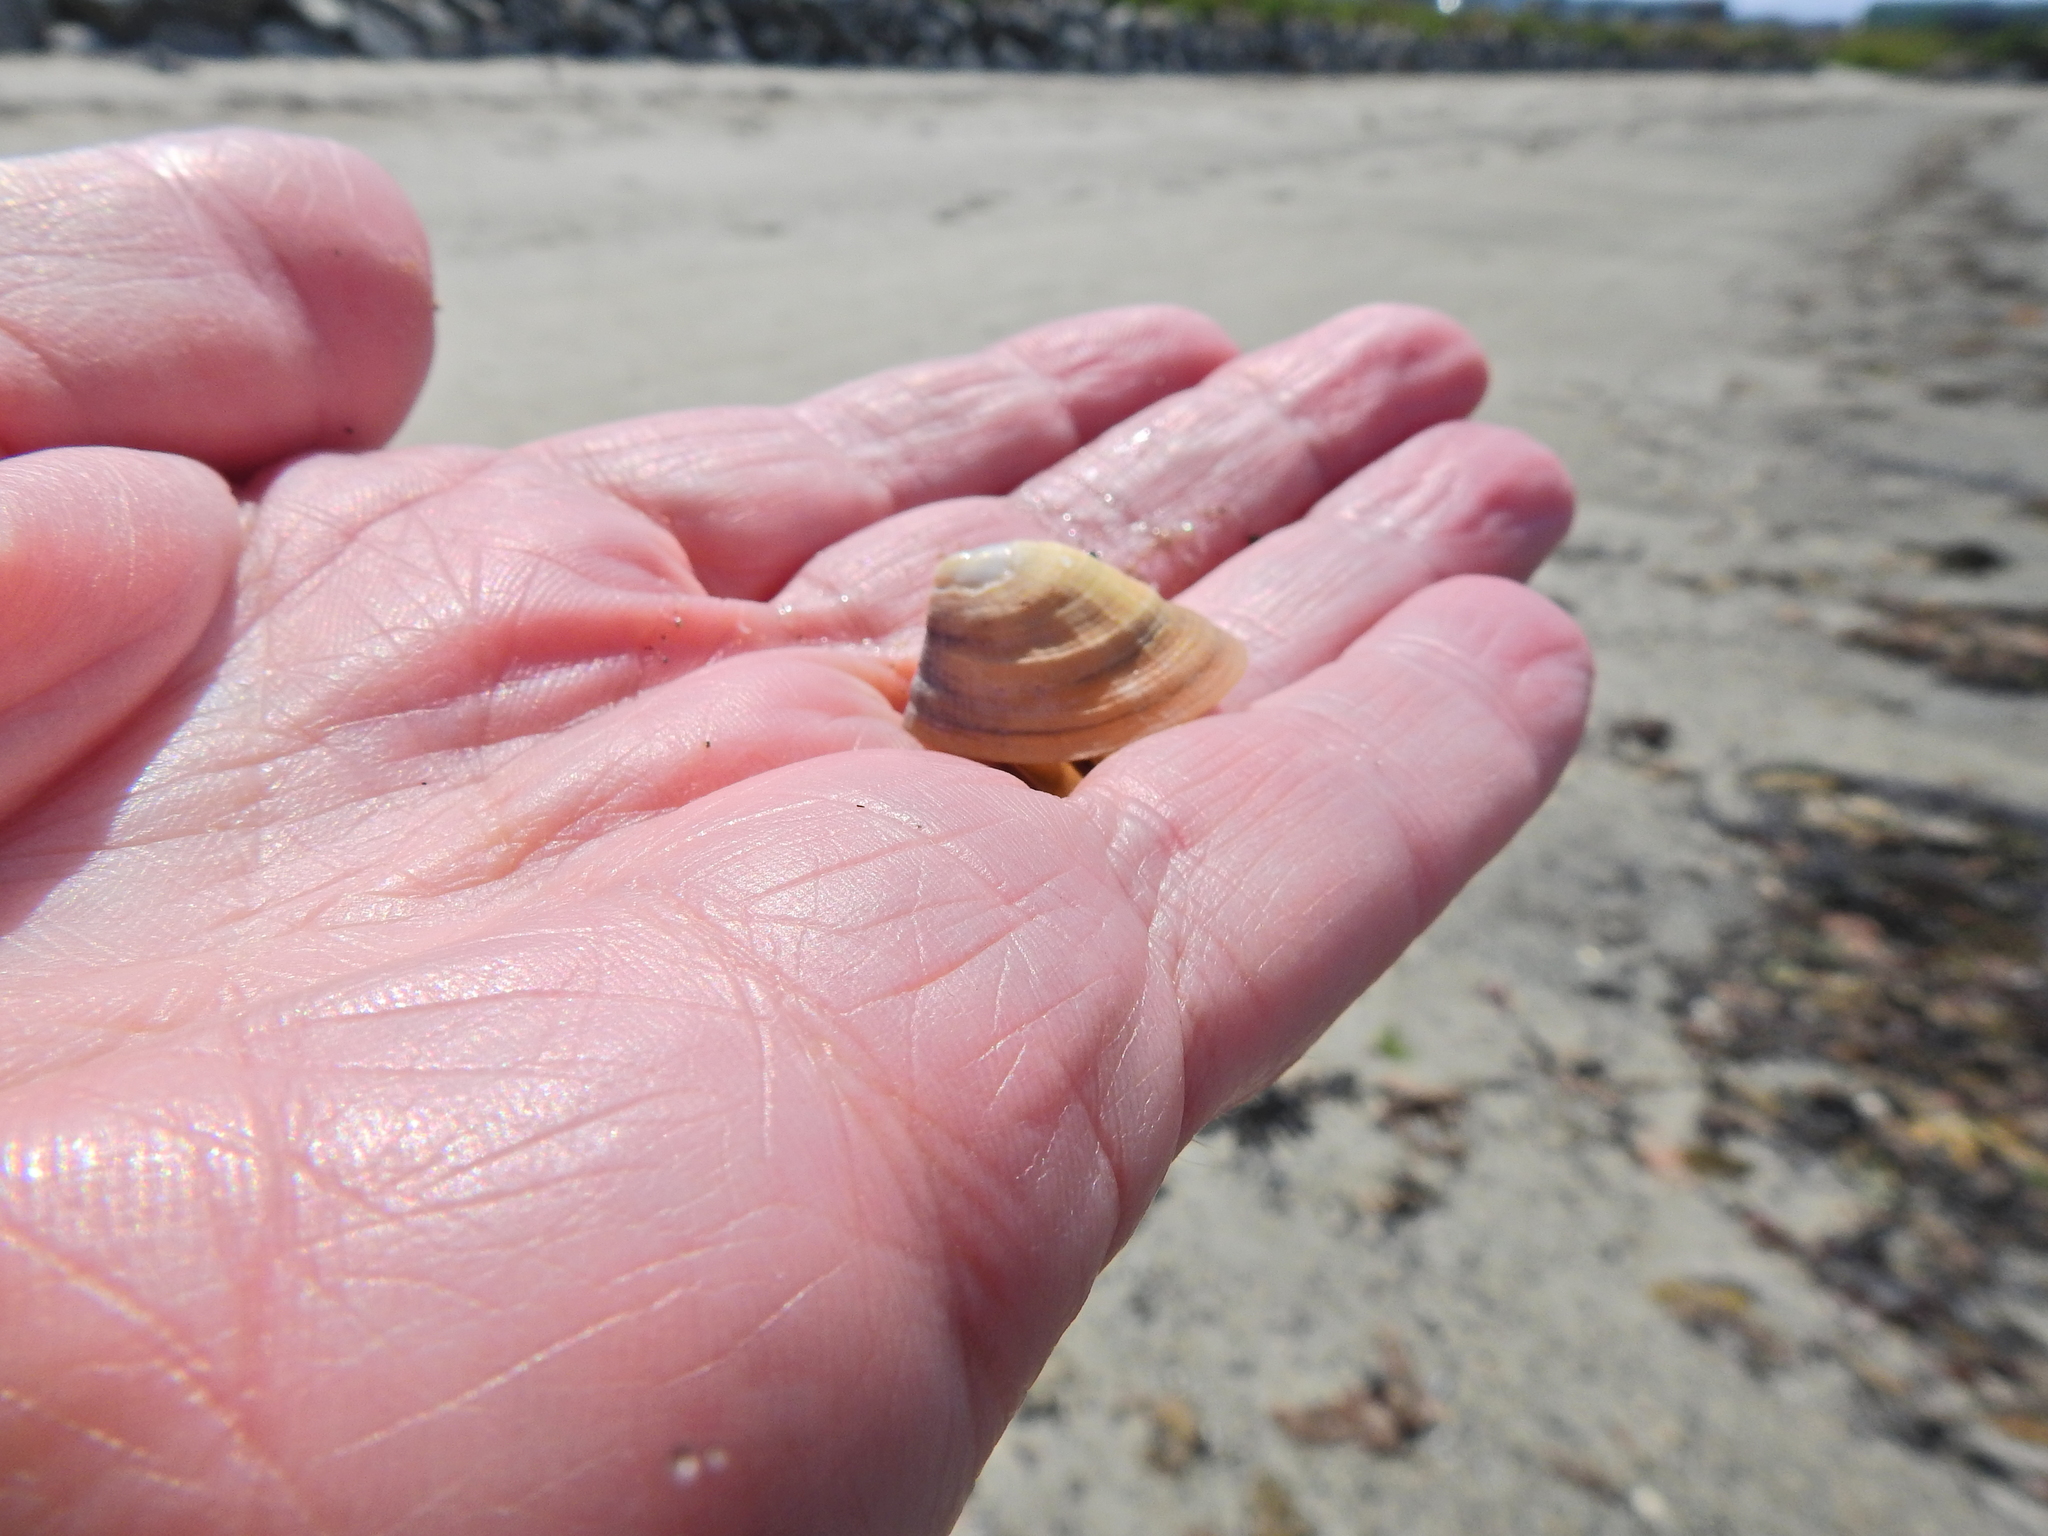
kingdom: Animalia
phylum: Mollusca
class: Gastropoda
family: Patellidae
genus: Patella
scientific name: Patella pellucida
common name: Blue-rayed limpet
